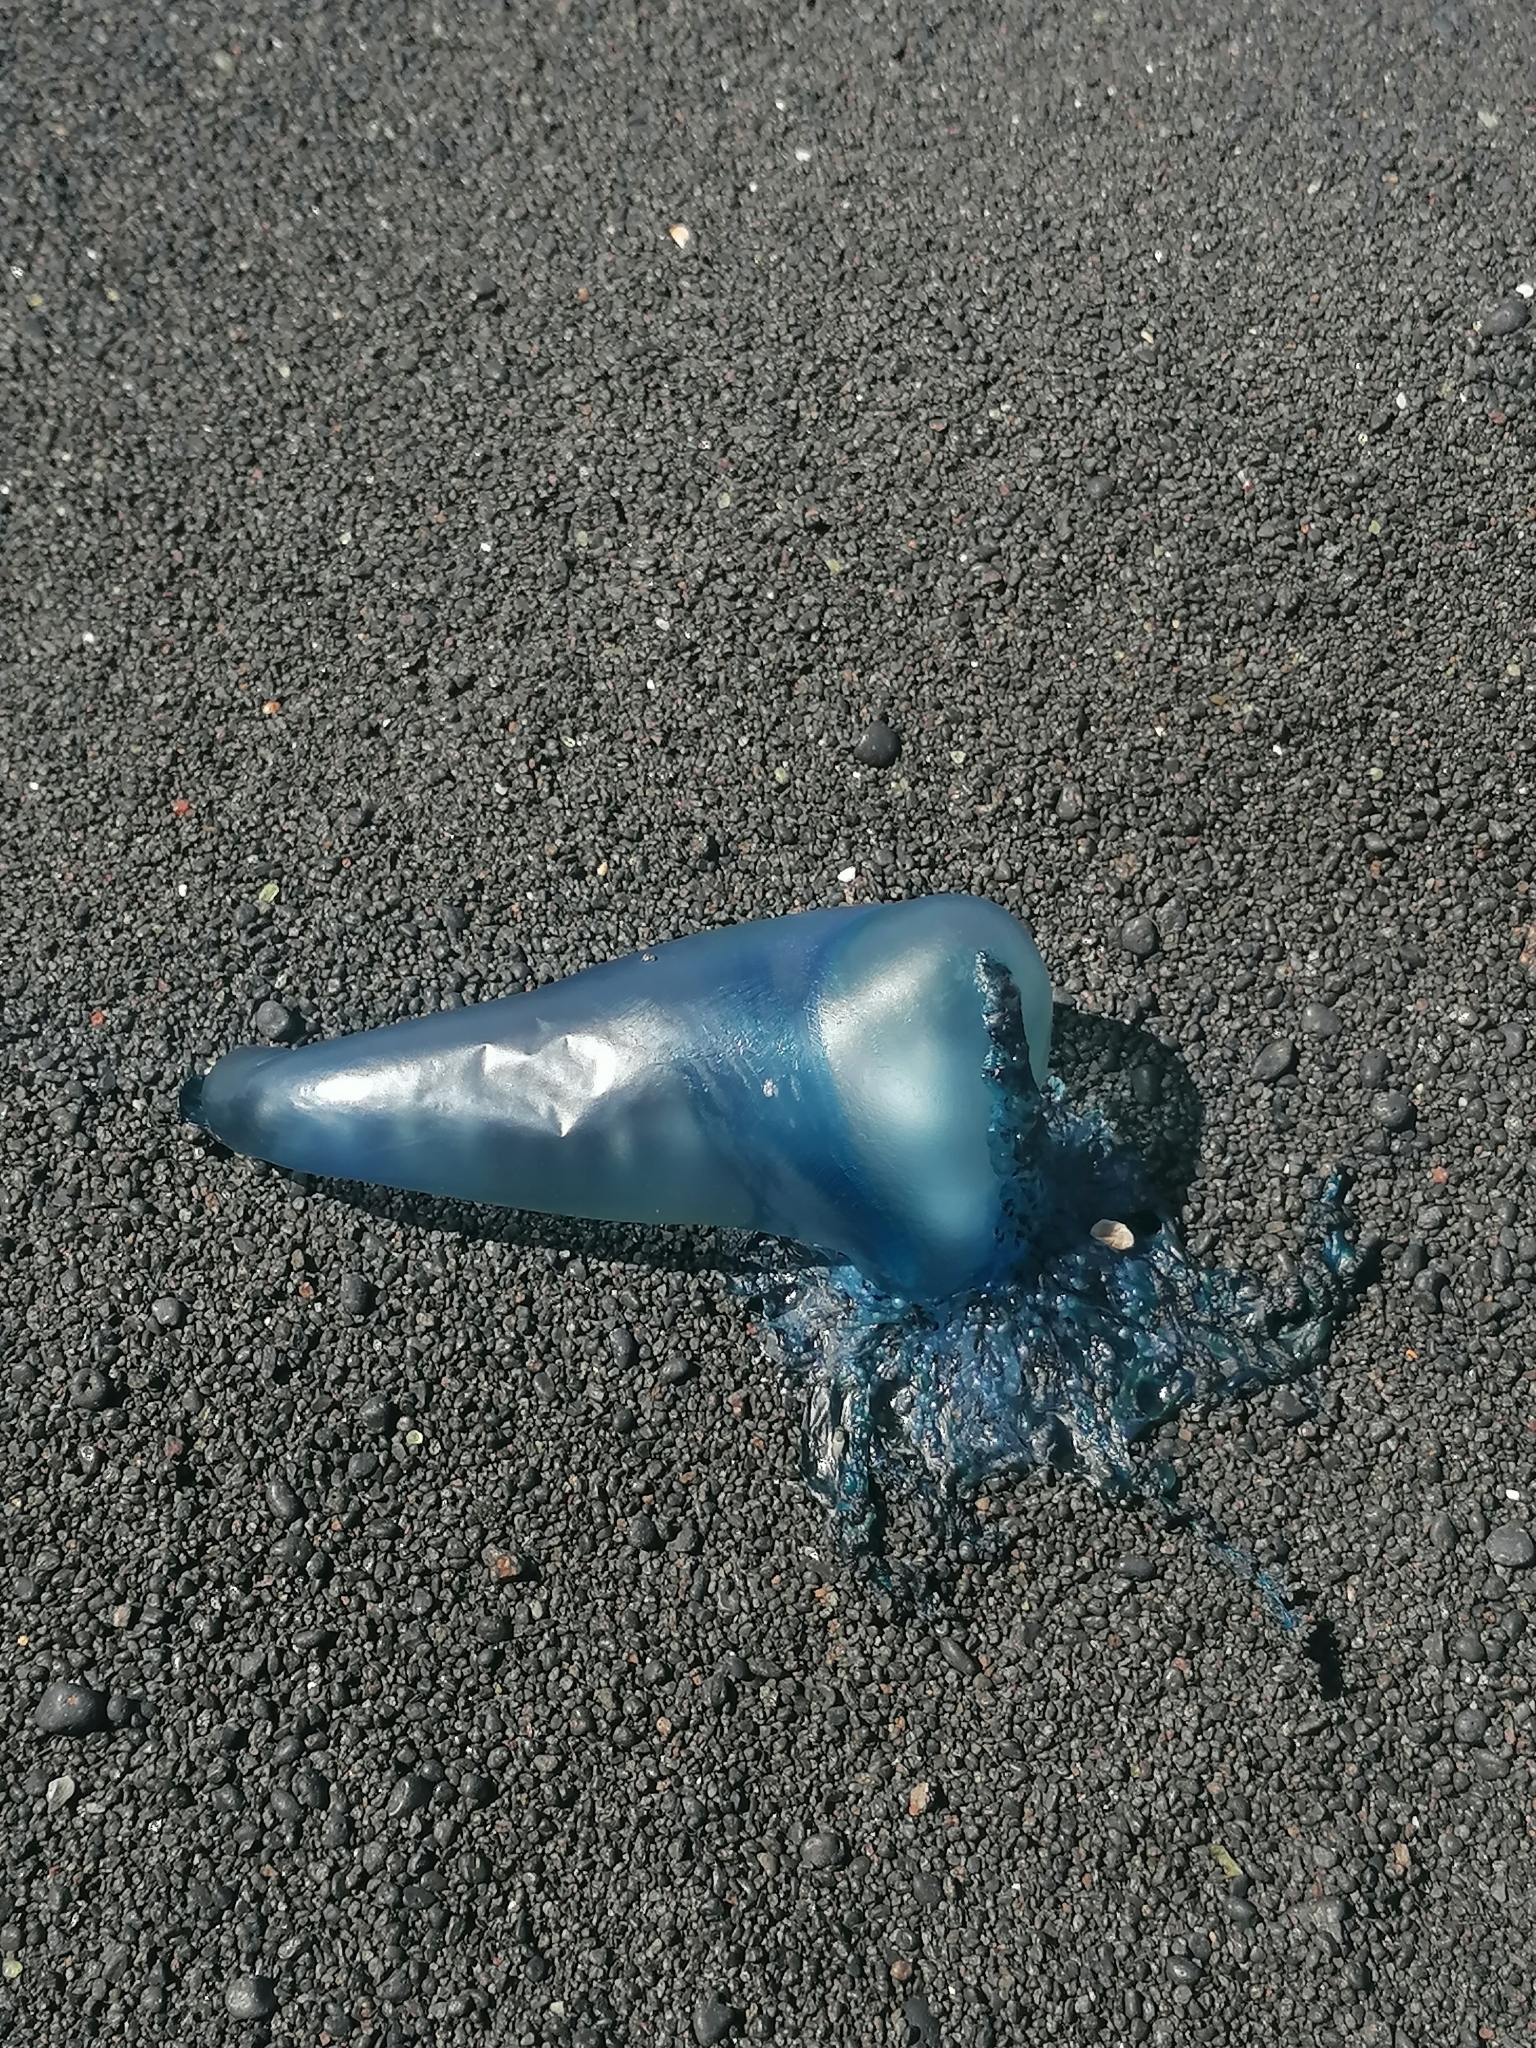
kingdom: Animalia
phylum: Cnidaria
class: Hydrozoa
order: Siphonophorae
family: Physaliidae
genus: Physalia
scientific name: Physalia physalis
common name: Portuguese man-of-war
